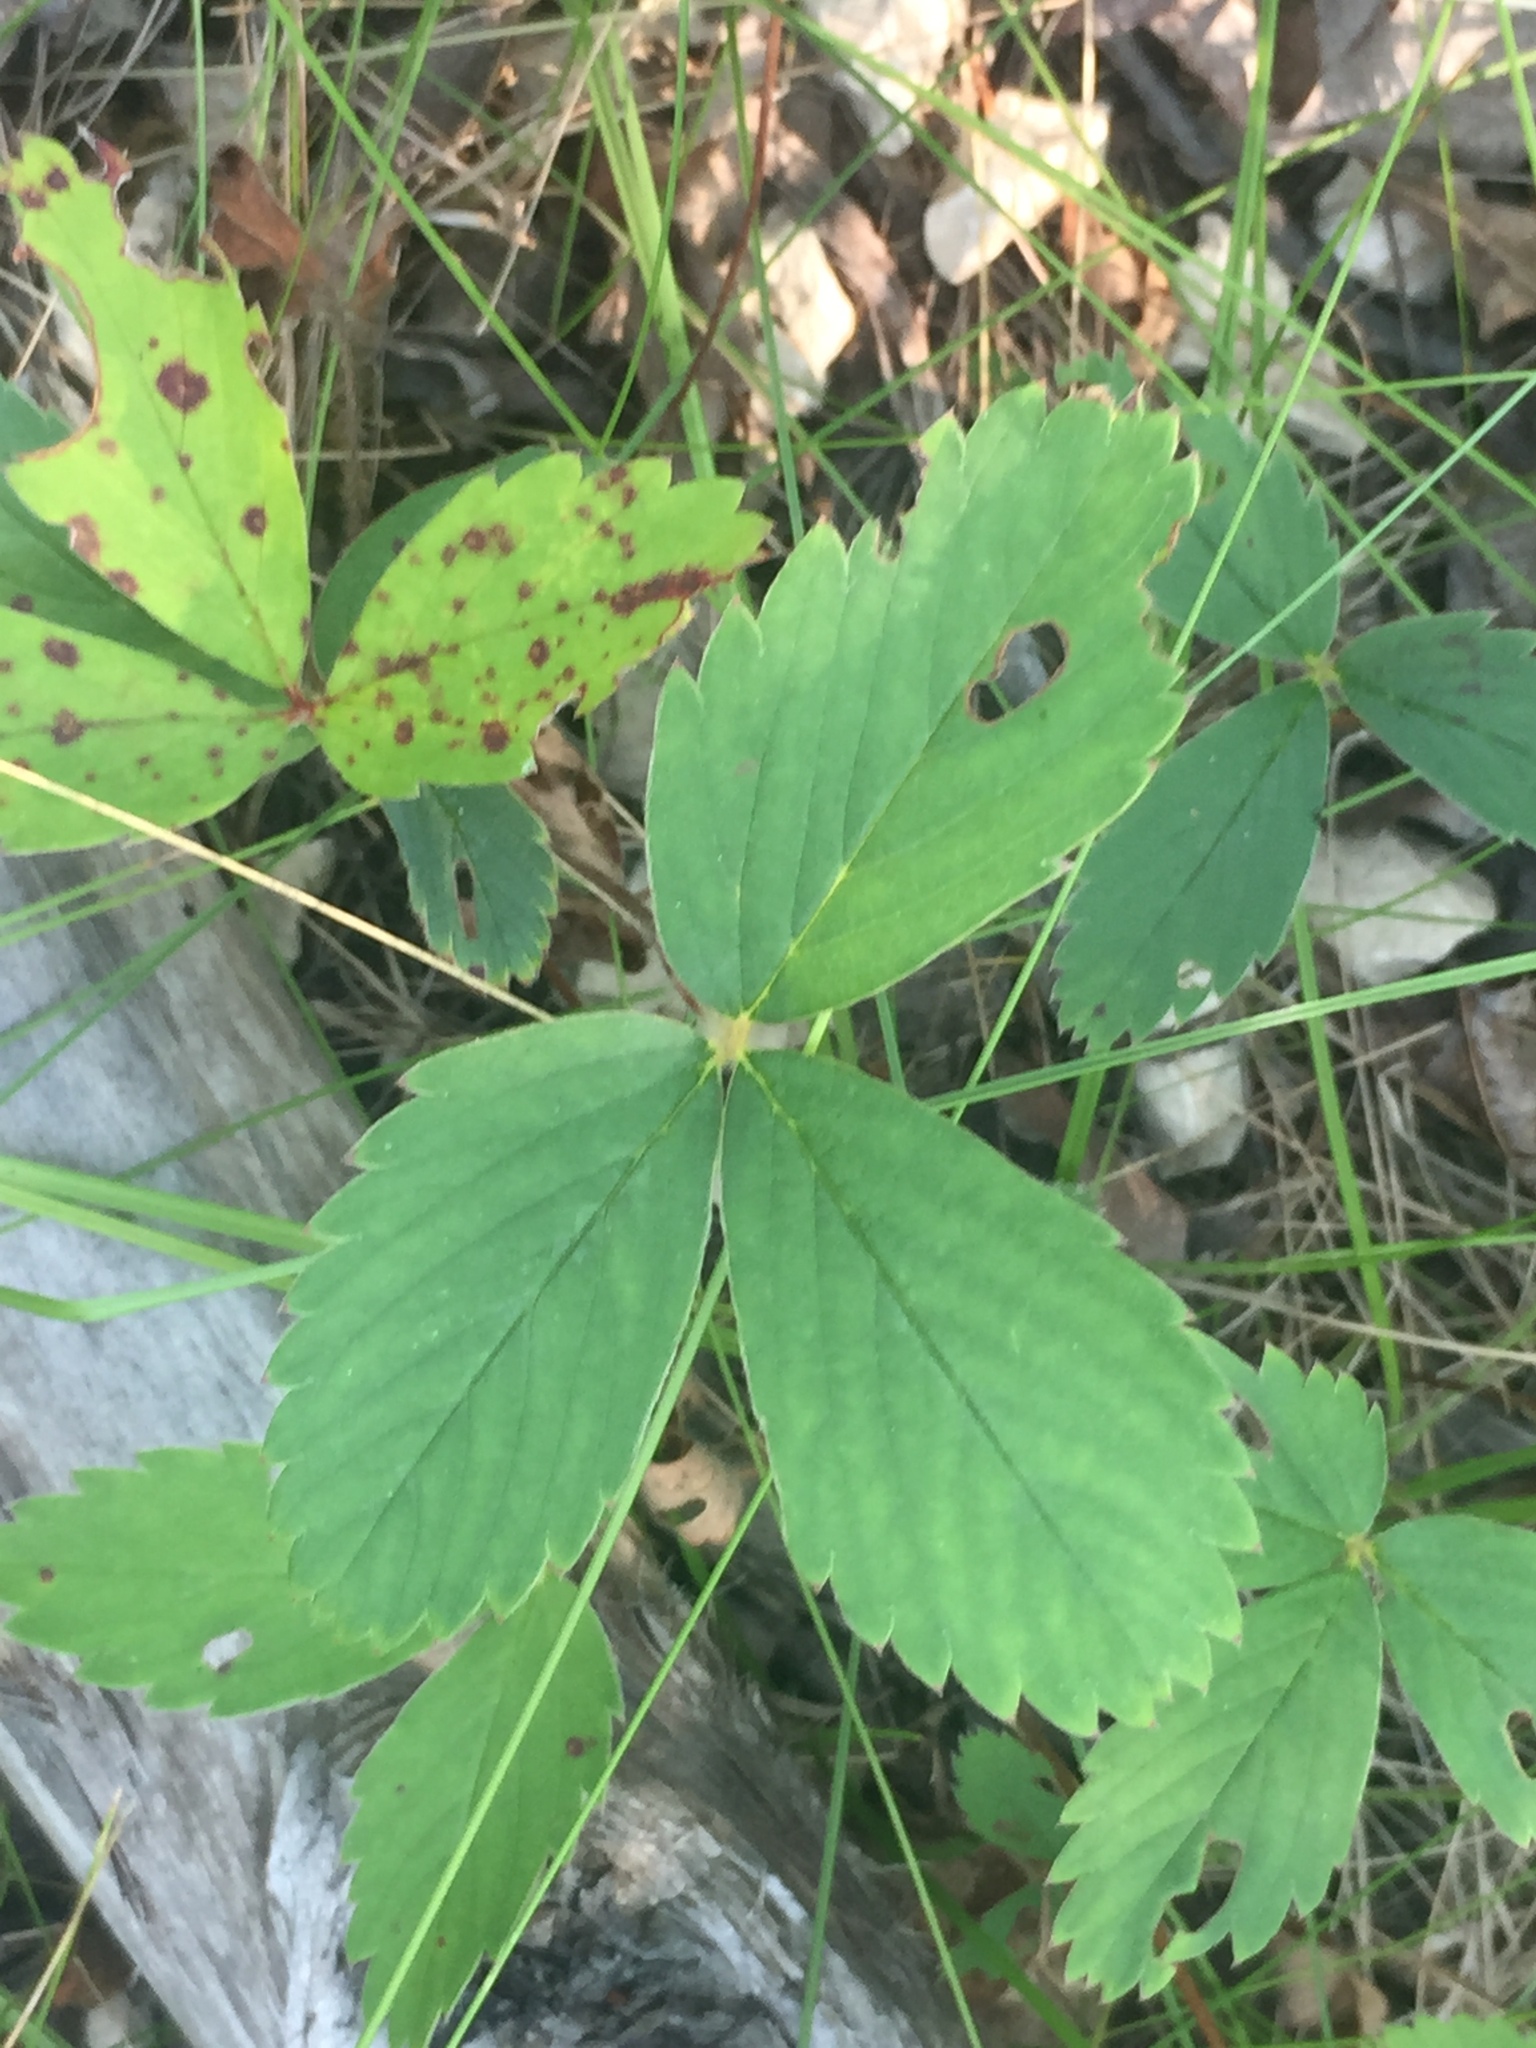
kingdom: Plantae
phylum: Tracheophyta
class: Magnoliopsida
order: Rosales
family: Rosaceae
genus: Fragaria
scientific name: Fragaria virginiana
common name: Thickleaved wild strawberry
